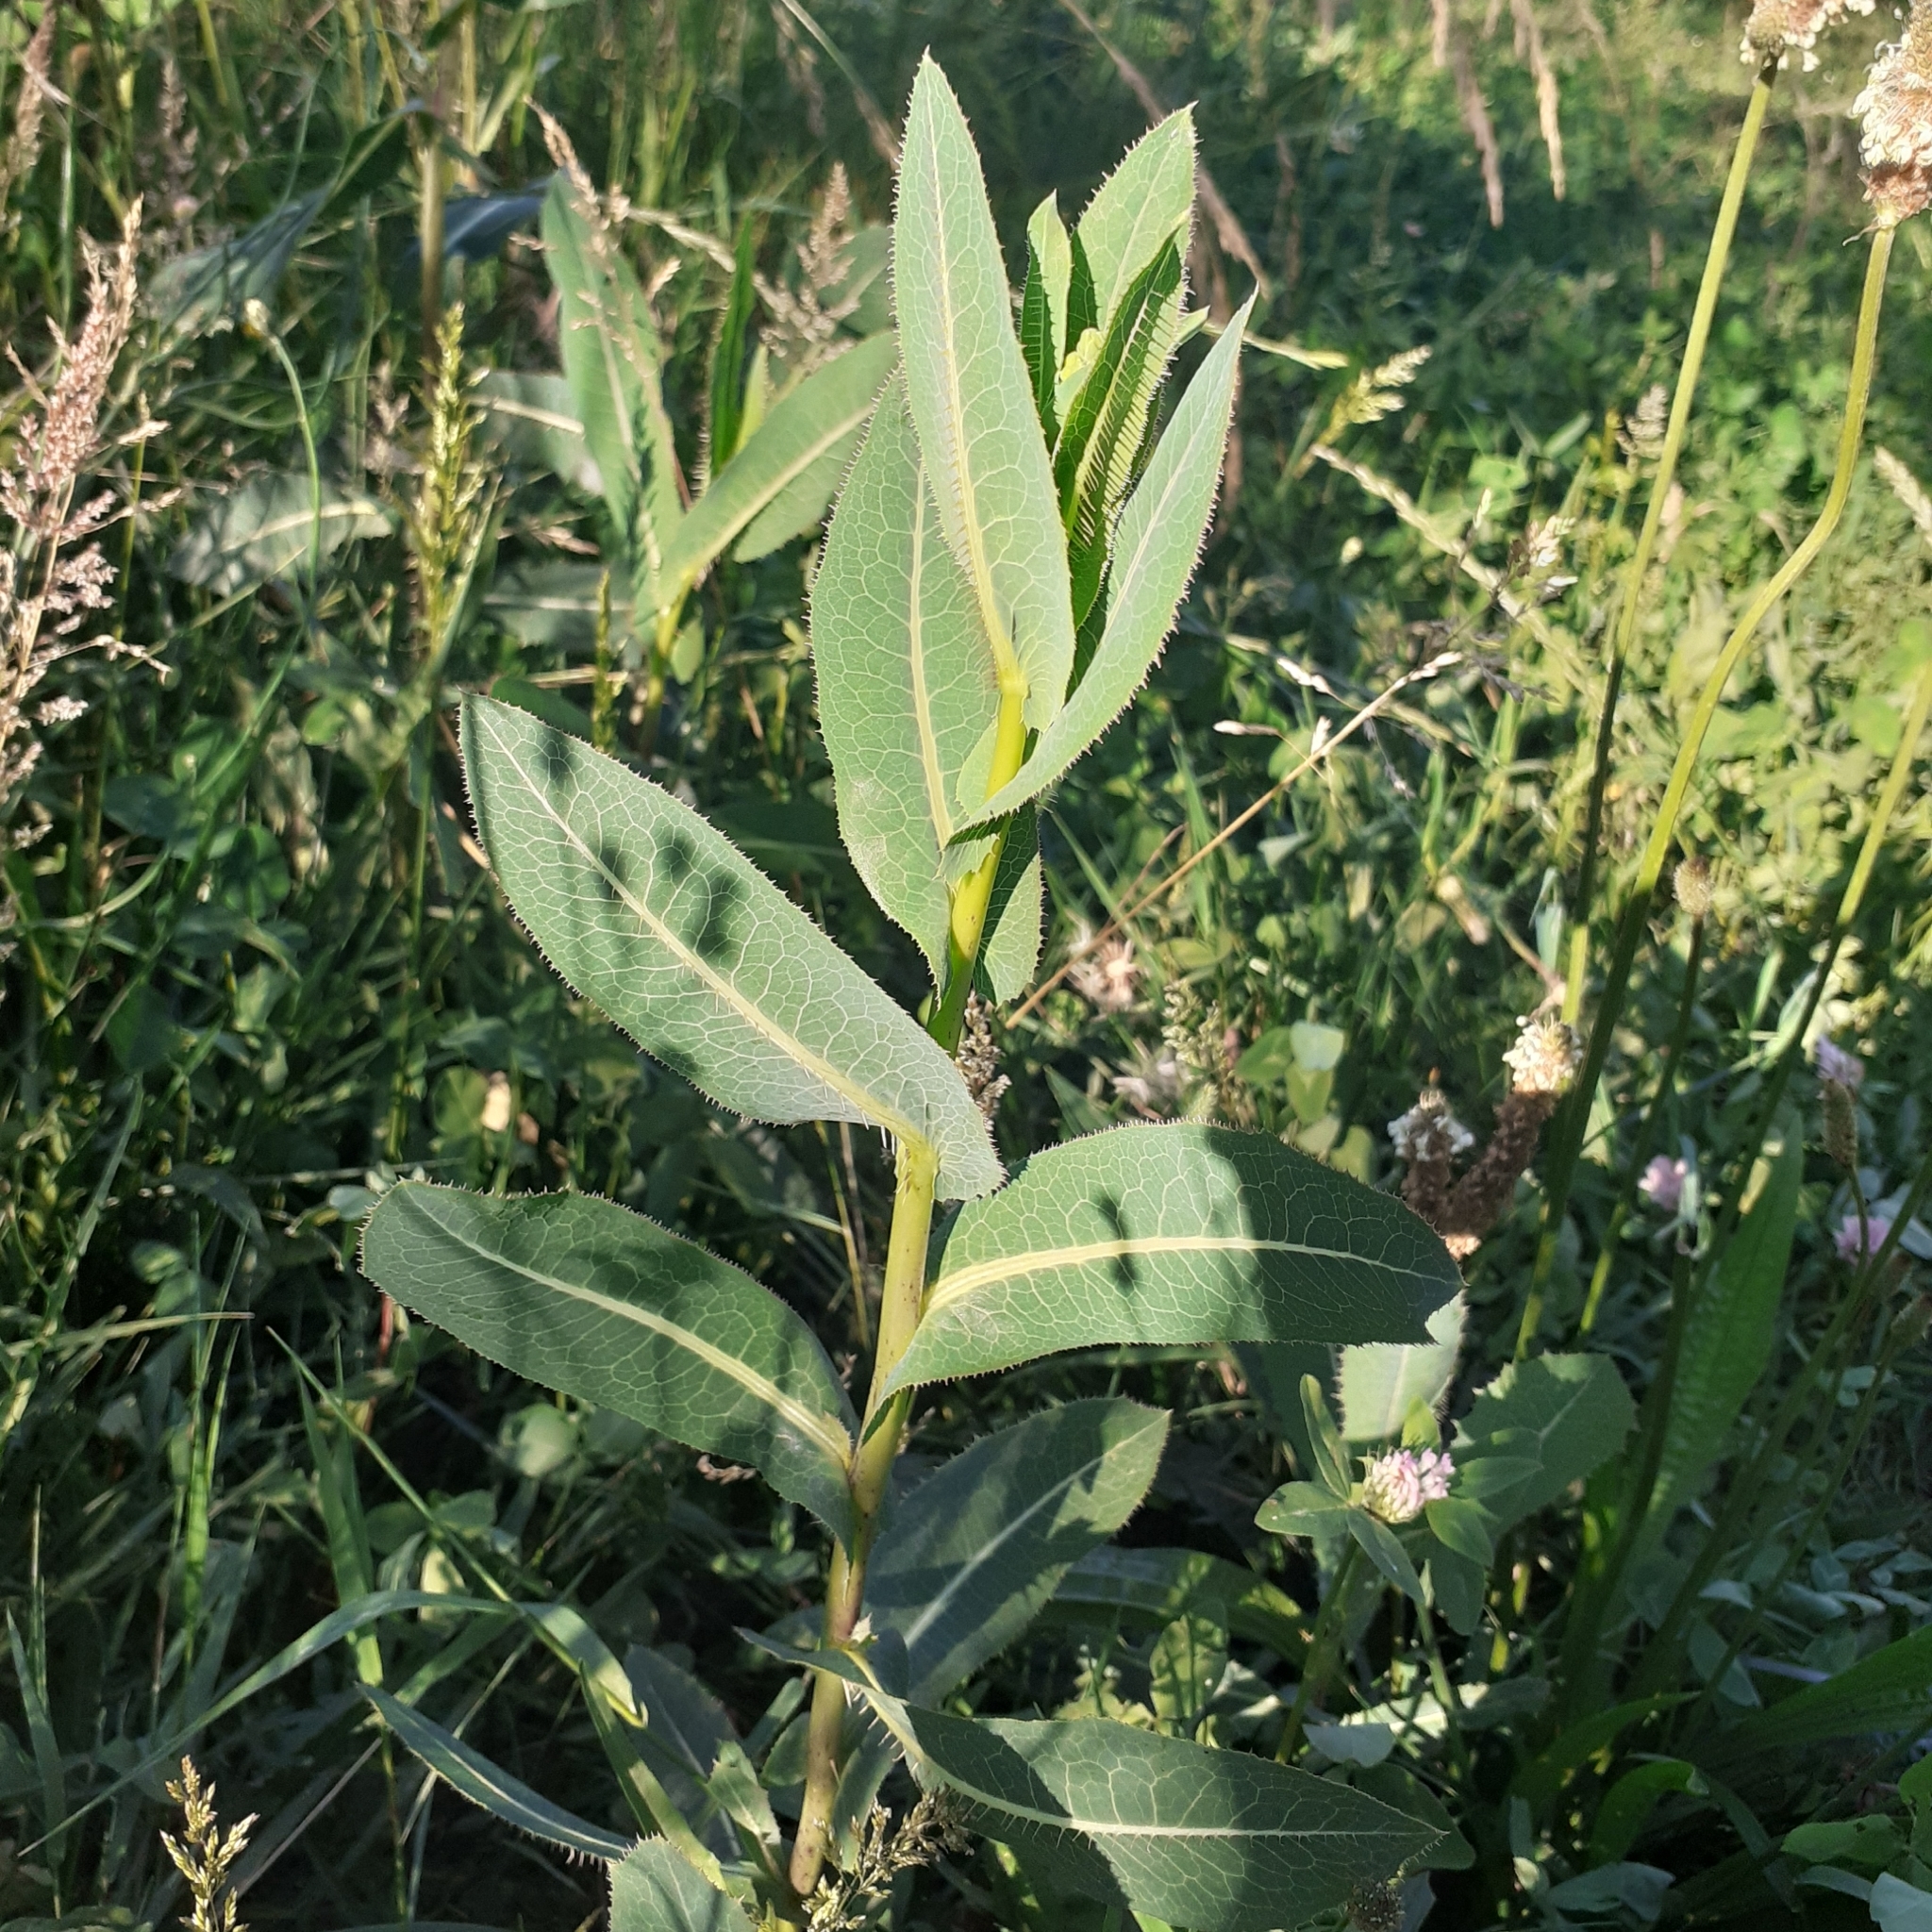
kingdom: Plantae
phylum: Tracheophyta
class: Magnoliopsida
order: Asterales
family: Asteraceae
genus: Lactuca
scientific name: Lactuca serriola
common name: Prickly lettuce
